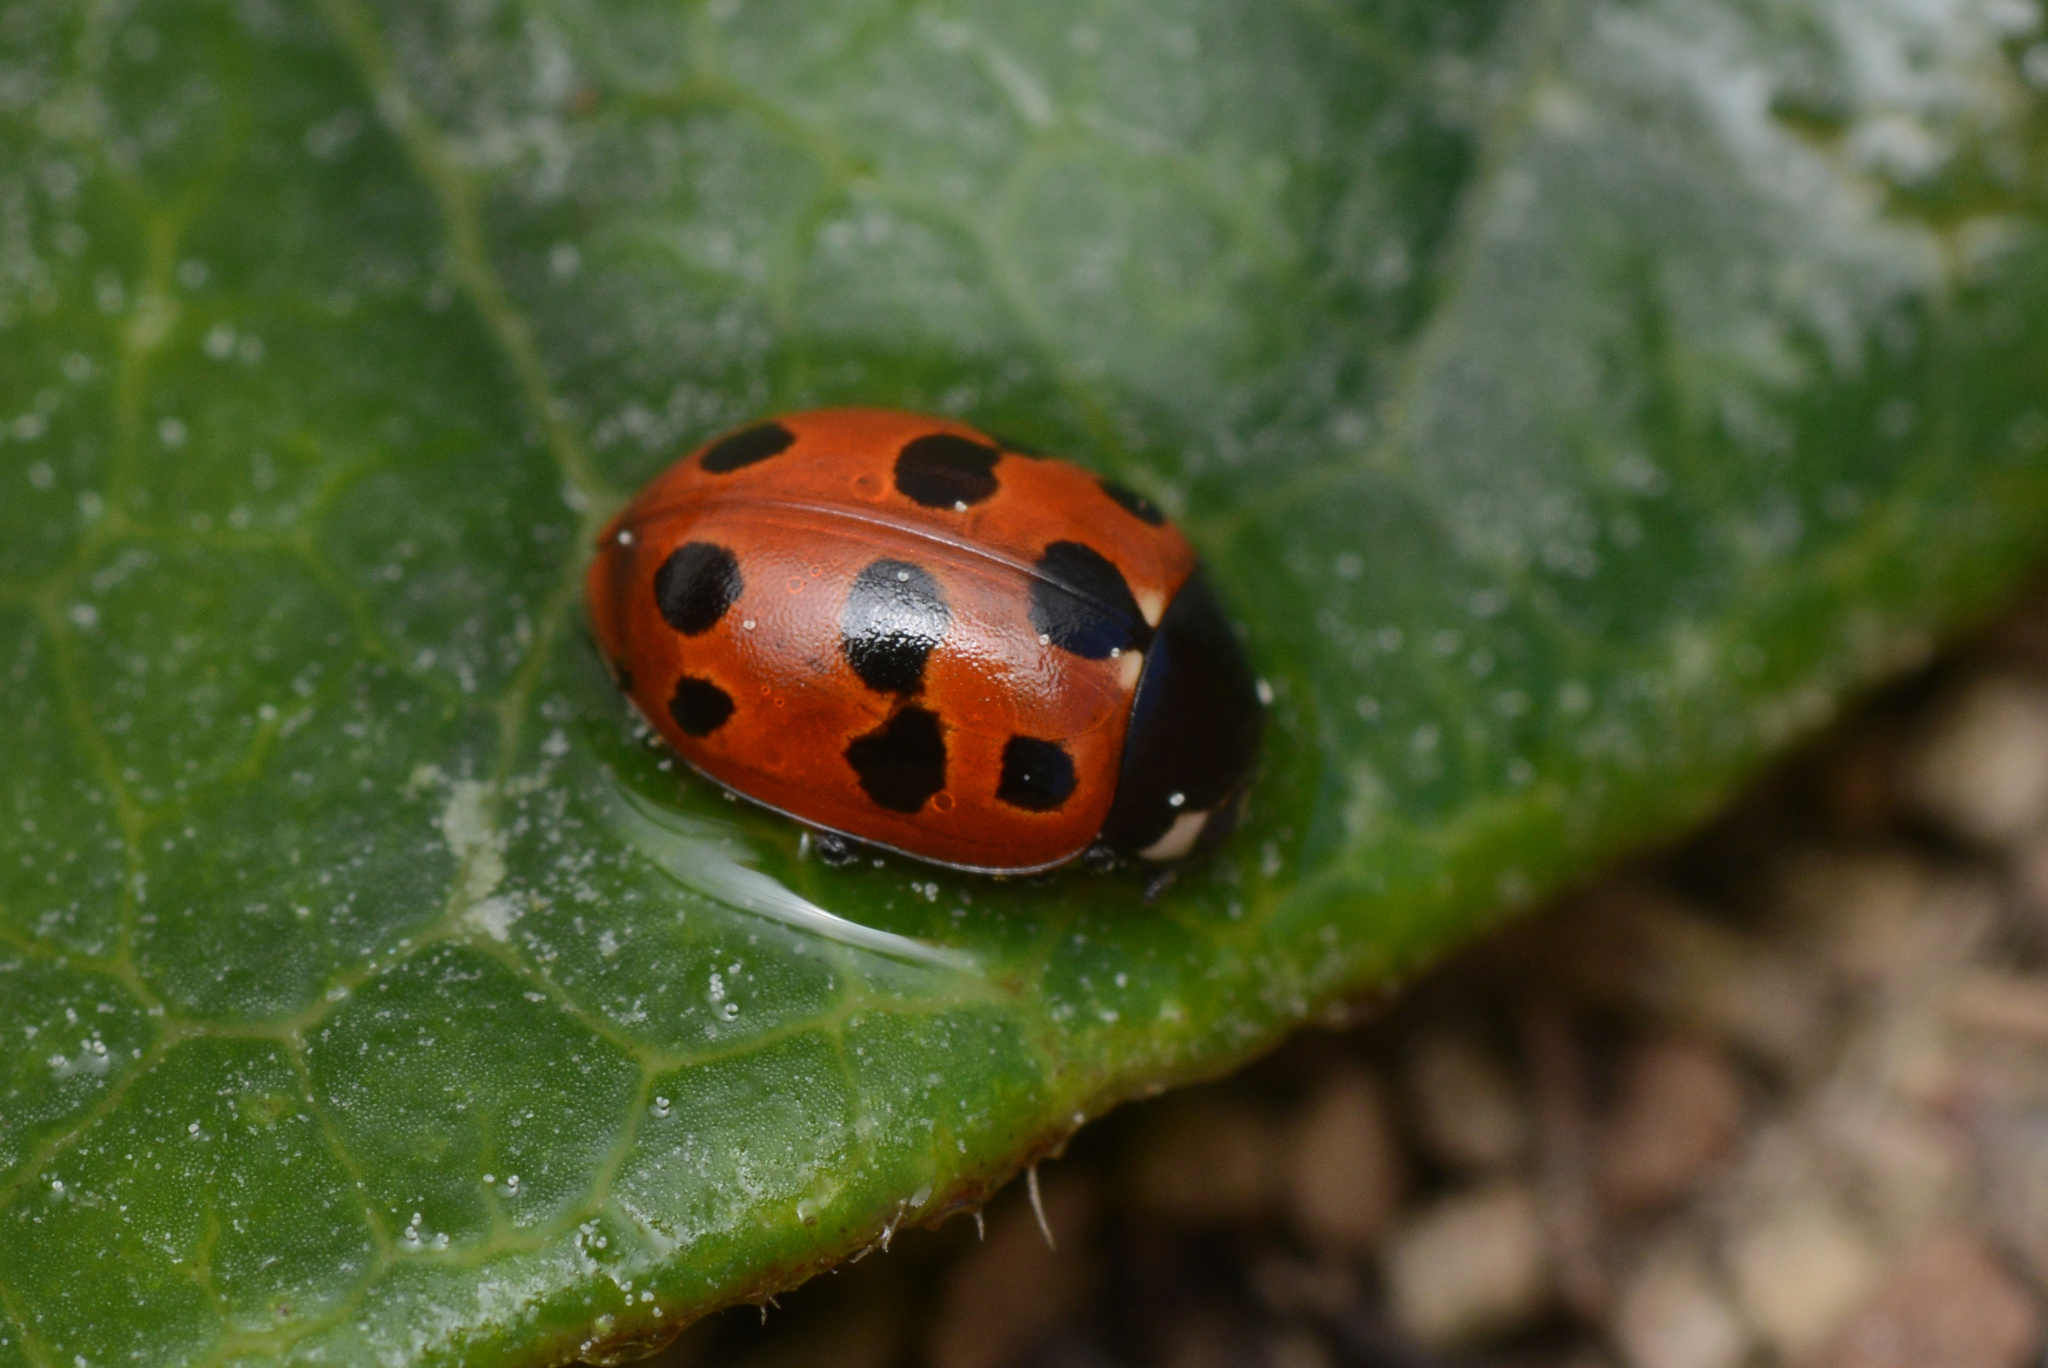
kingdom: Animalia
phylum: Arthropoda
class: Insecta
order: Coleoptera
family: Coccinellidae
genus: Coccinella
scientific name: Coccinella undecimpunctata
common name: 11-spot ladybird
